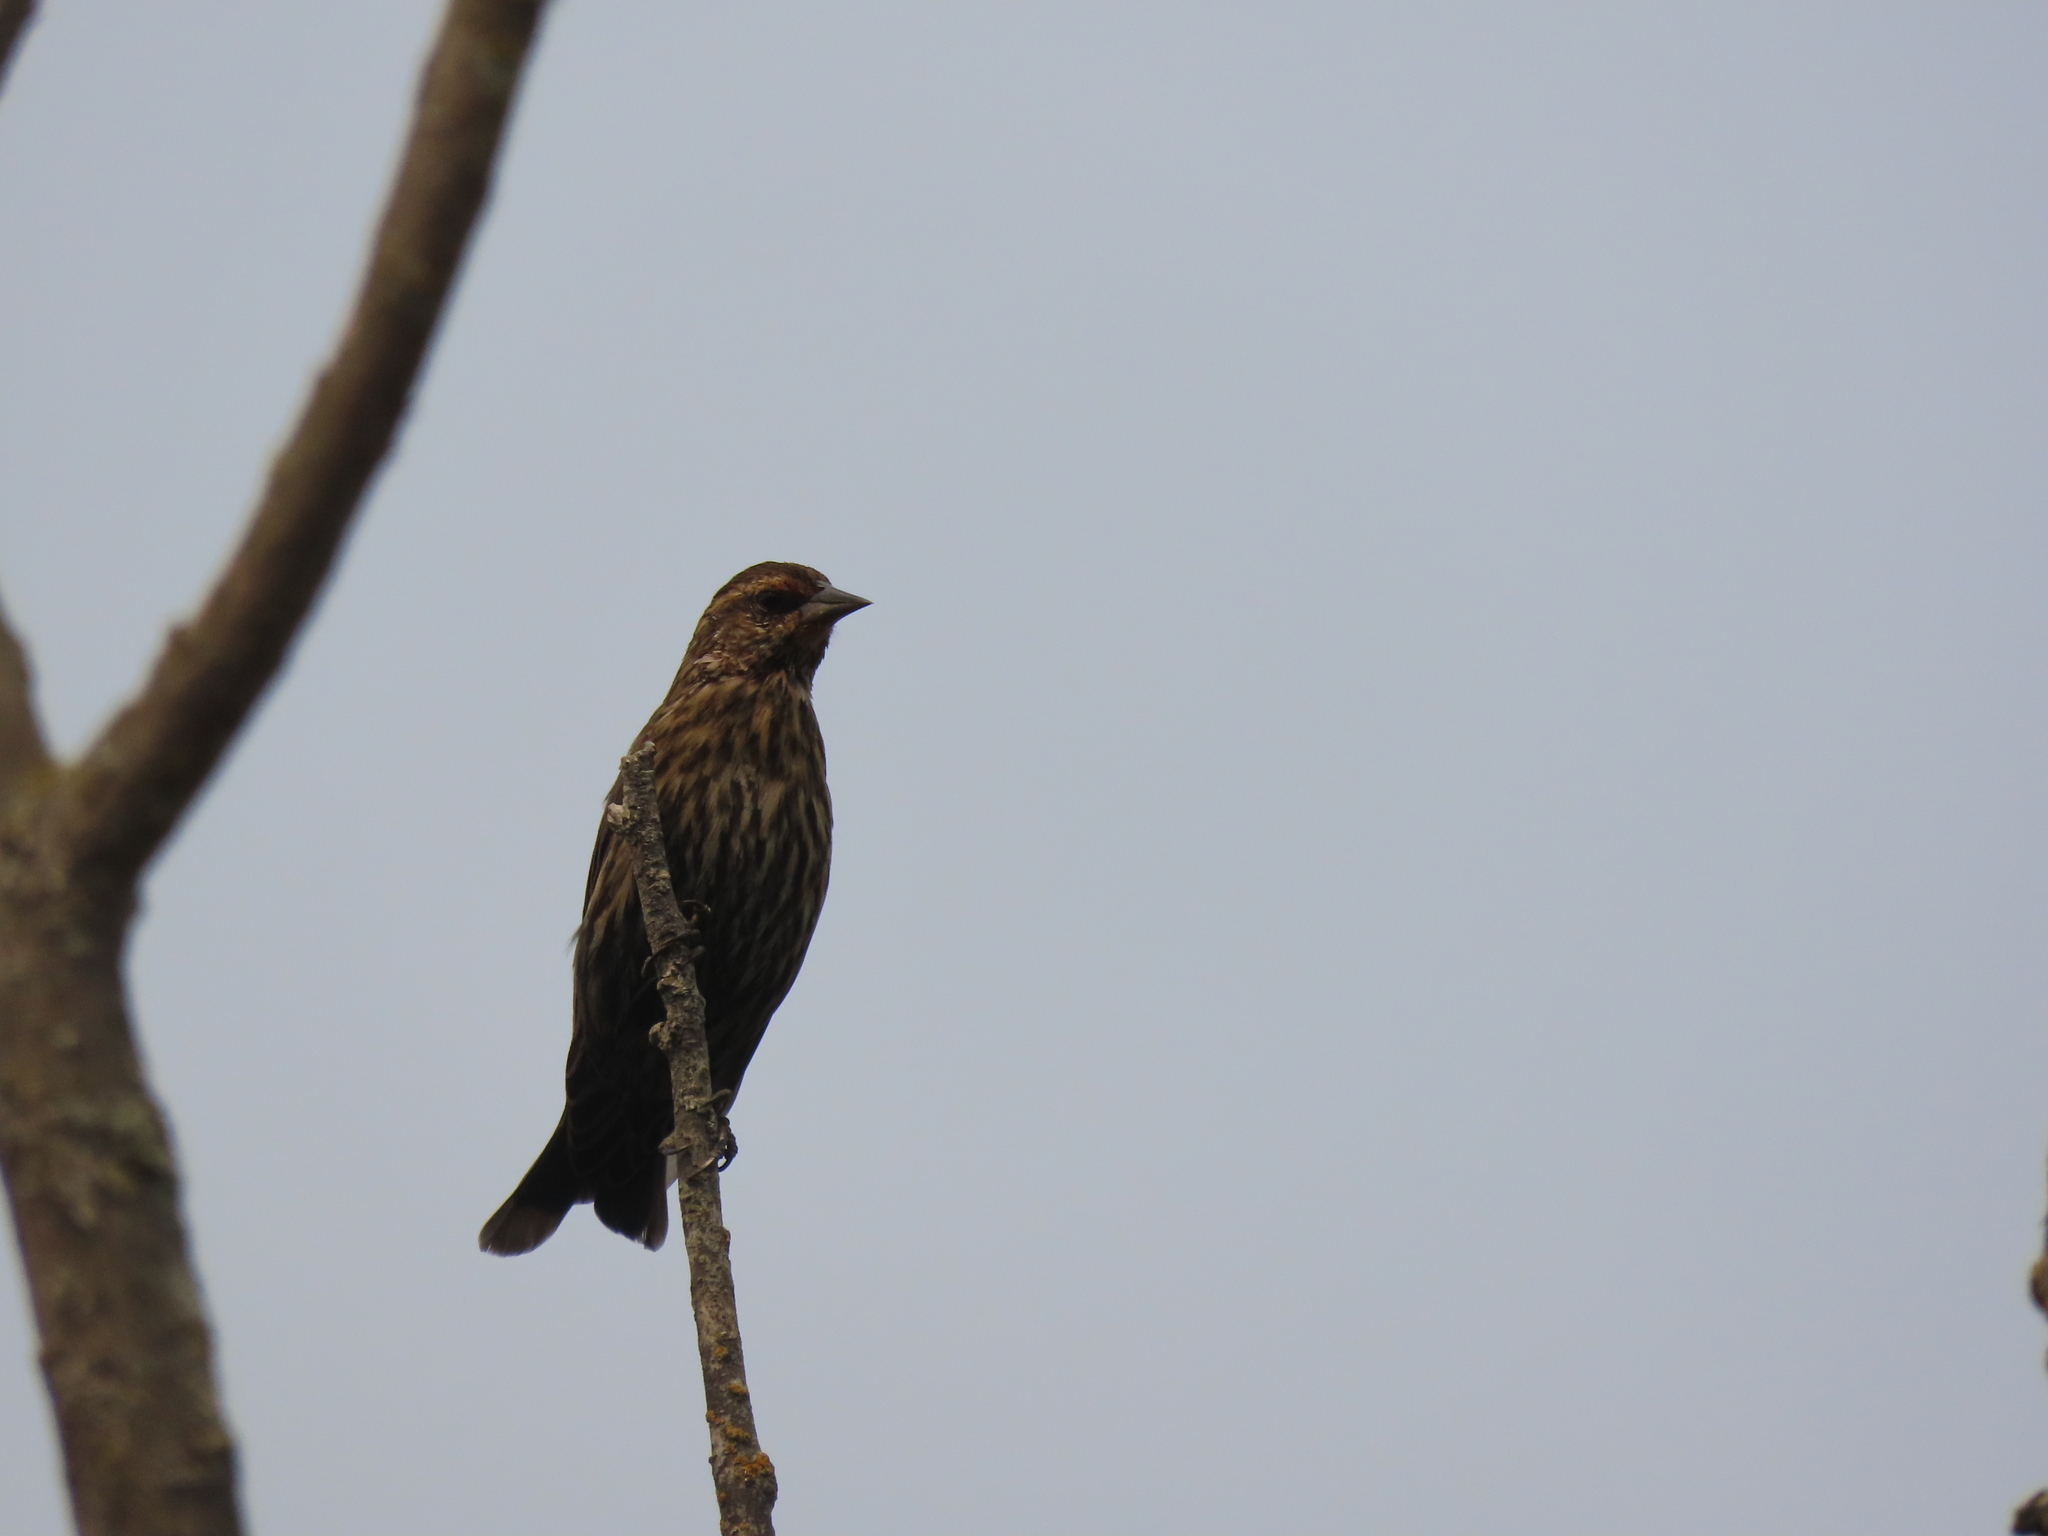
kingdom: Animalia
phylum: Chordata
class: Aves
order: Passeriformes
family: Icteridae
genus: Agelaius
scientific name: Agelaius phoeniceus
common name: Red-winged blackbird
